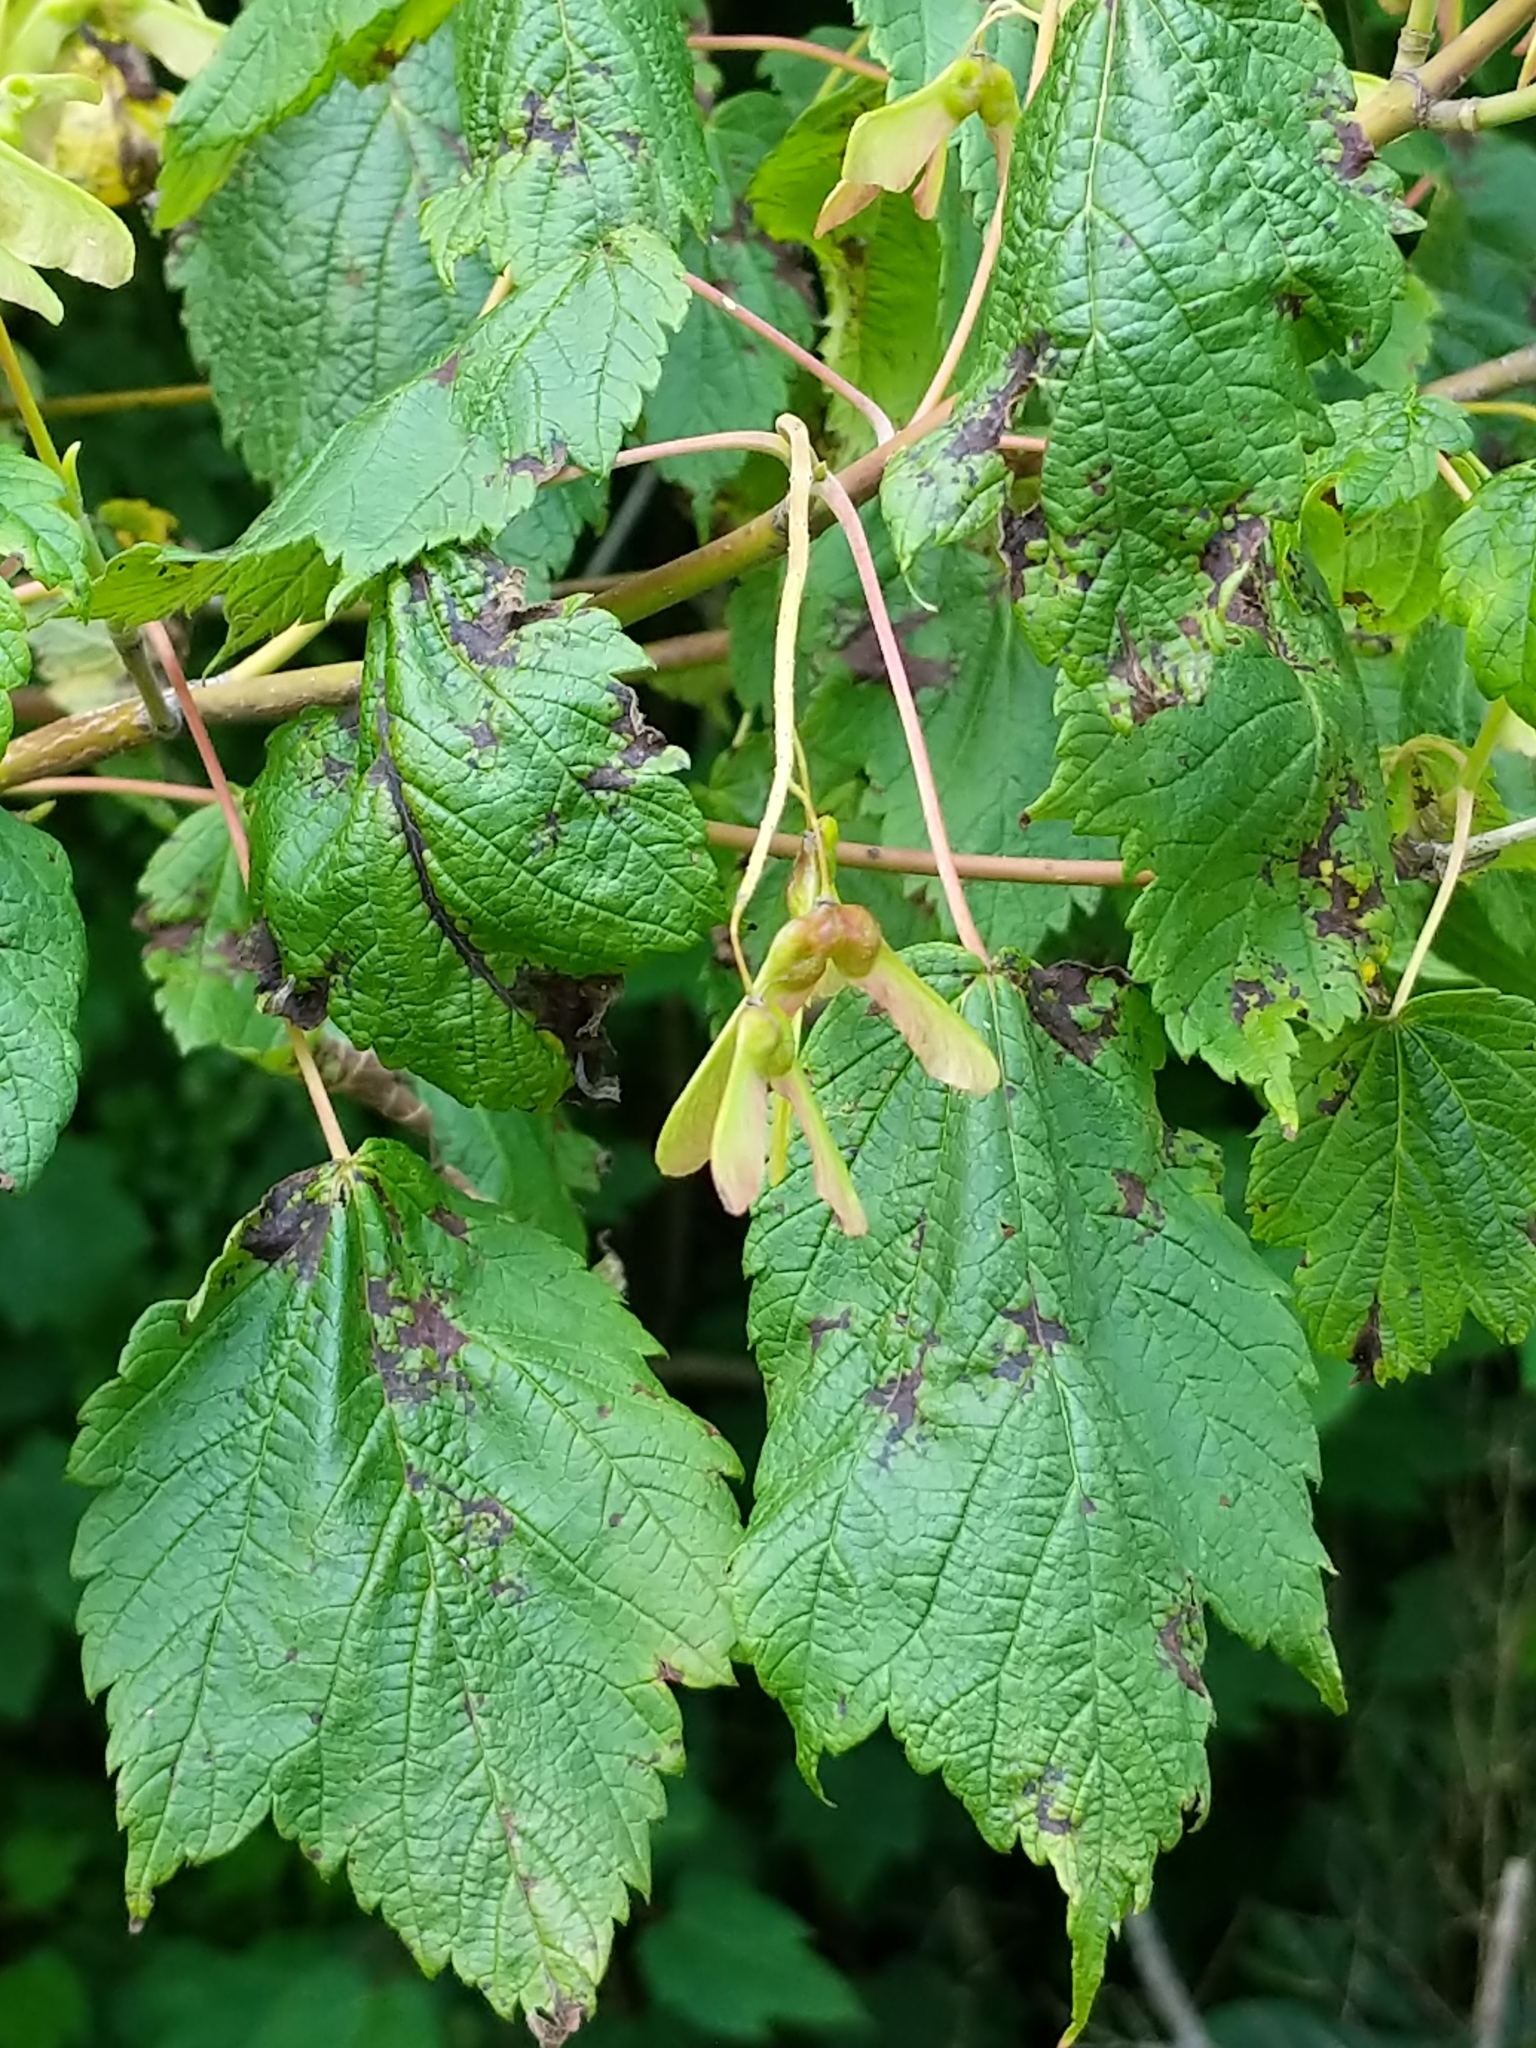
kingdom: Plantae
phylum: Tracheophyta
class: Magnoliopsida
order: Sapindales
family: Sapindaceae
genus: Acer
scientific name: Acer spicatum
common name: Mountain maple
